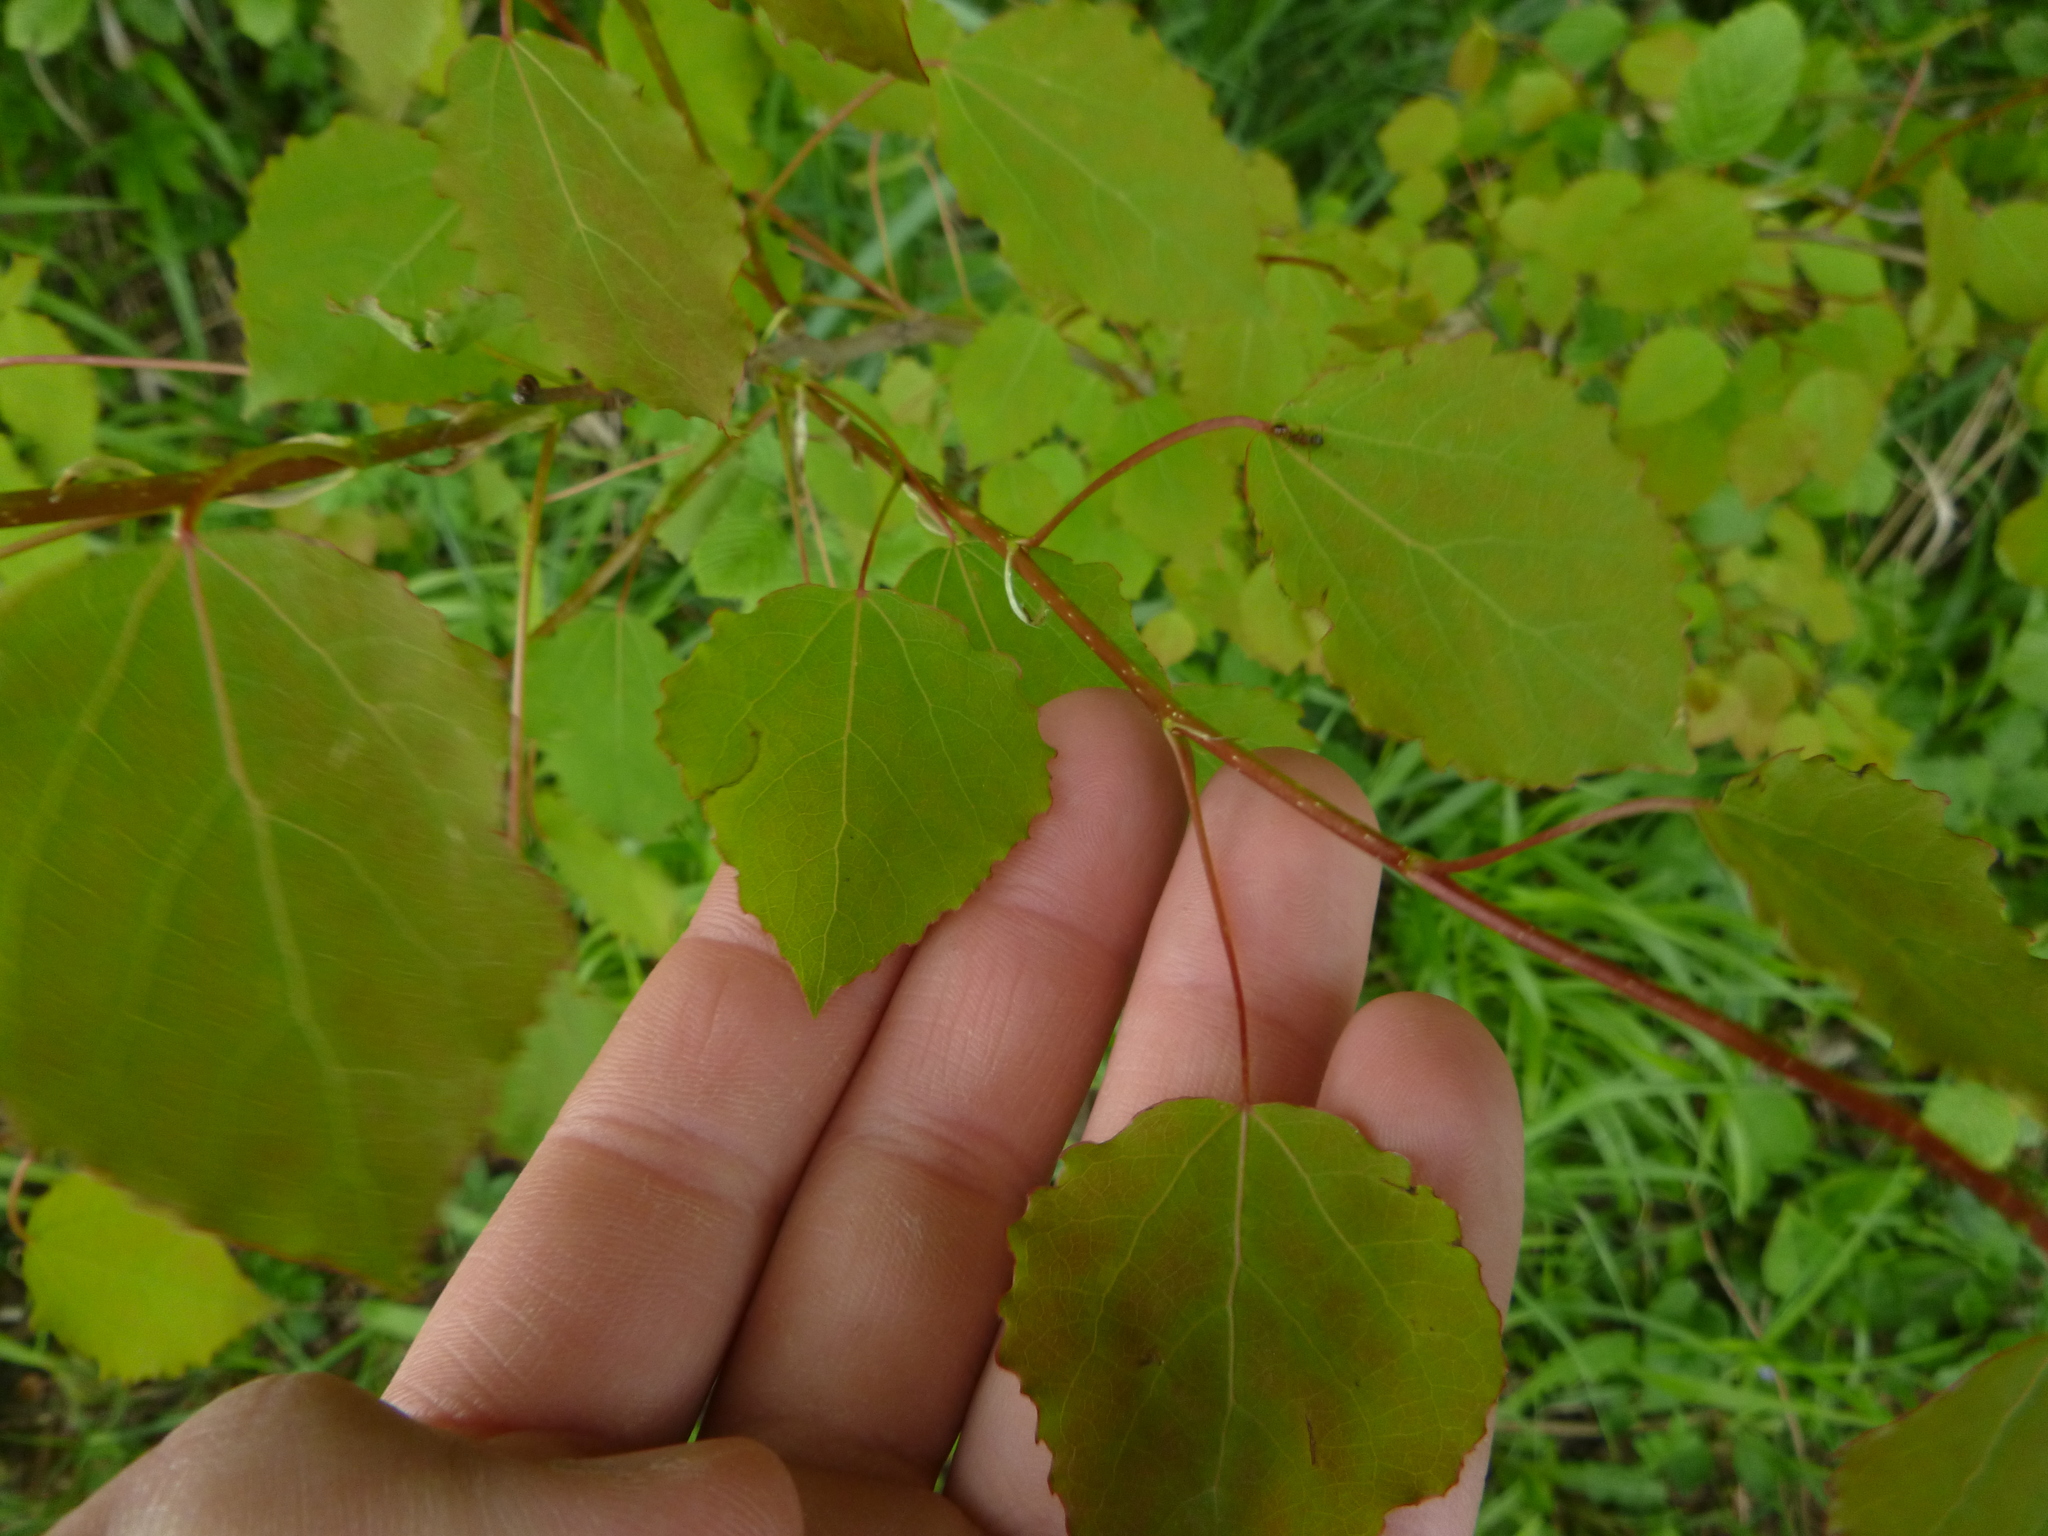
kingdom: Plantae
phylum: Tracheophyta
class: Magnoliopsida
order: Malpighiales
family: Salicaceae
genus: Populus
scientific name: Populus tremula
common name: European aspen
